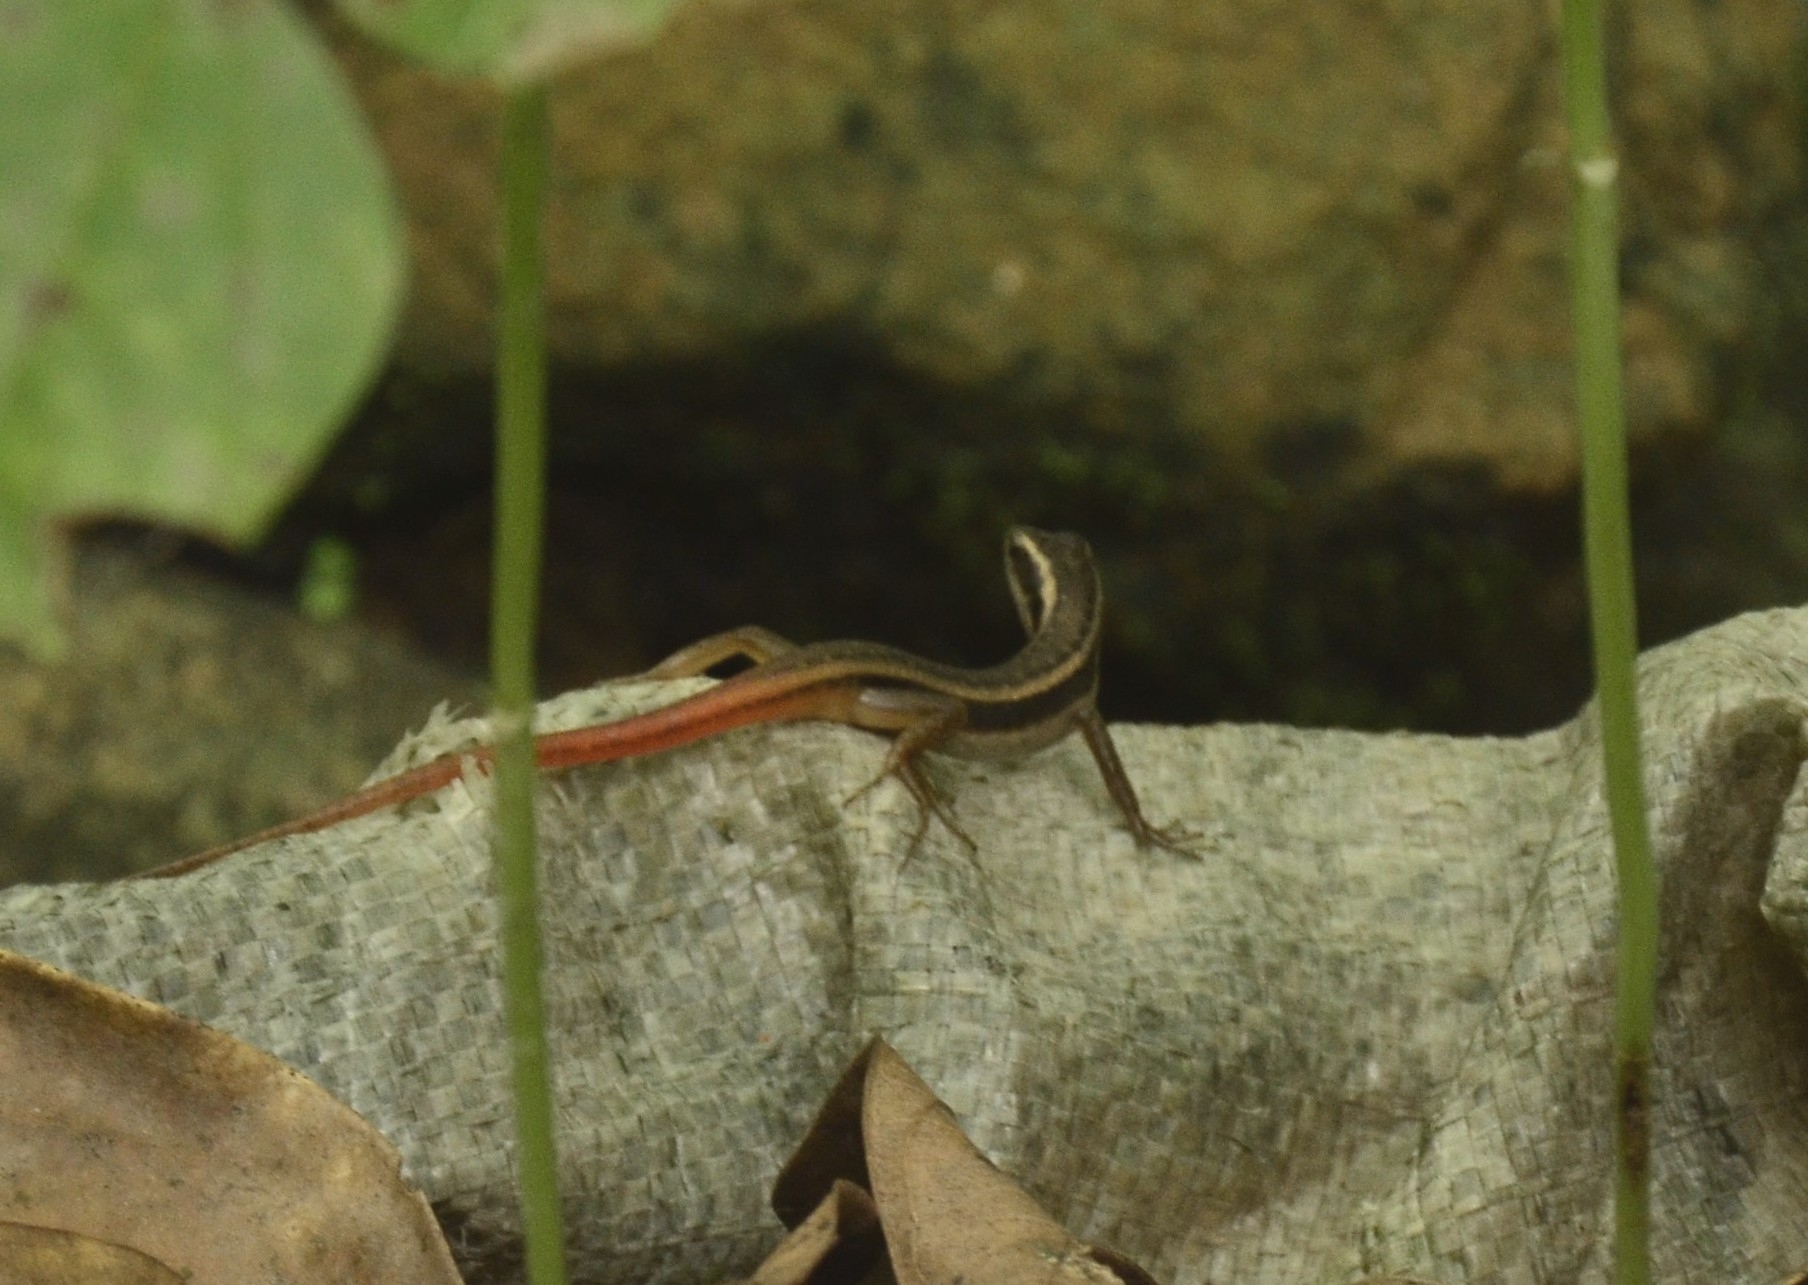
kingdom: Animalia
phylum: Chordata
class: Squamata
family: Scincidae
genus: Sphenomorphus
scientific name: Sphenomorphus dussumieri
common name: Dussumier's forest skink
